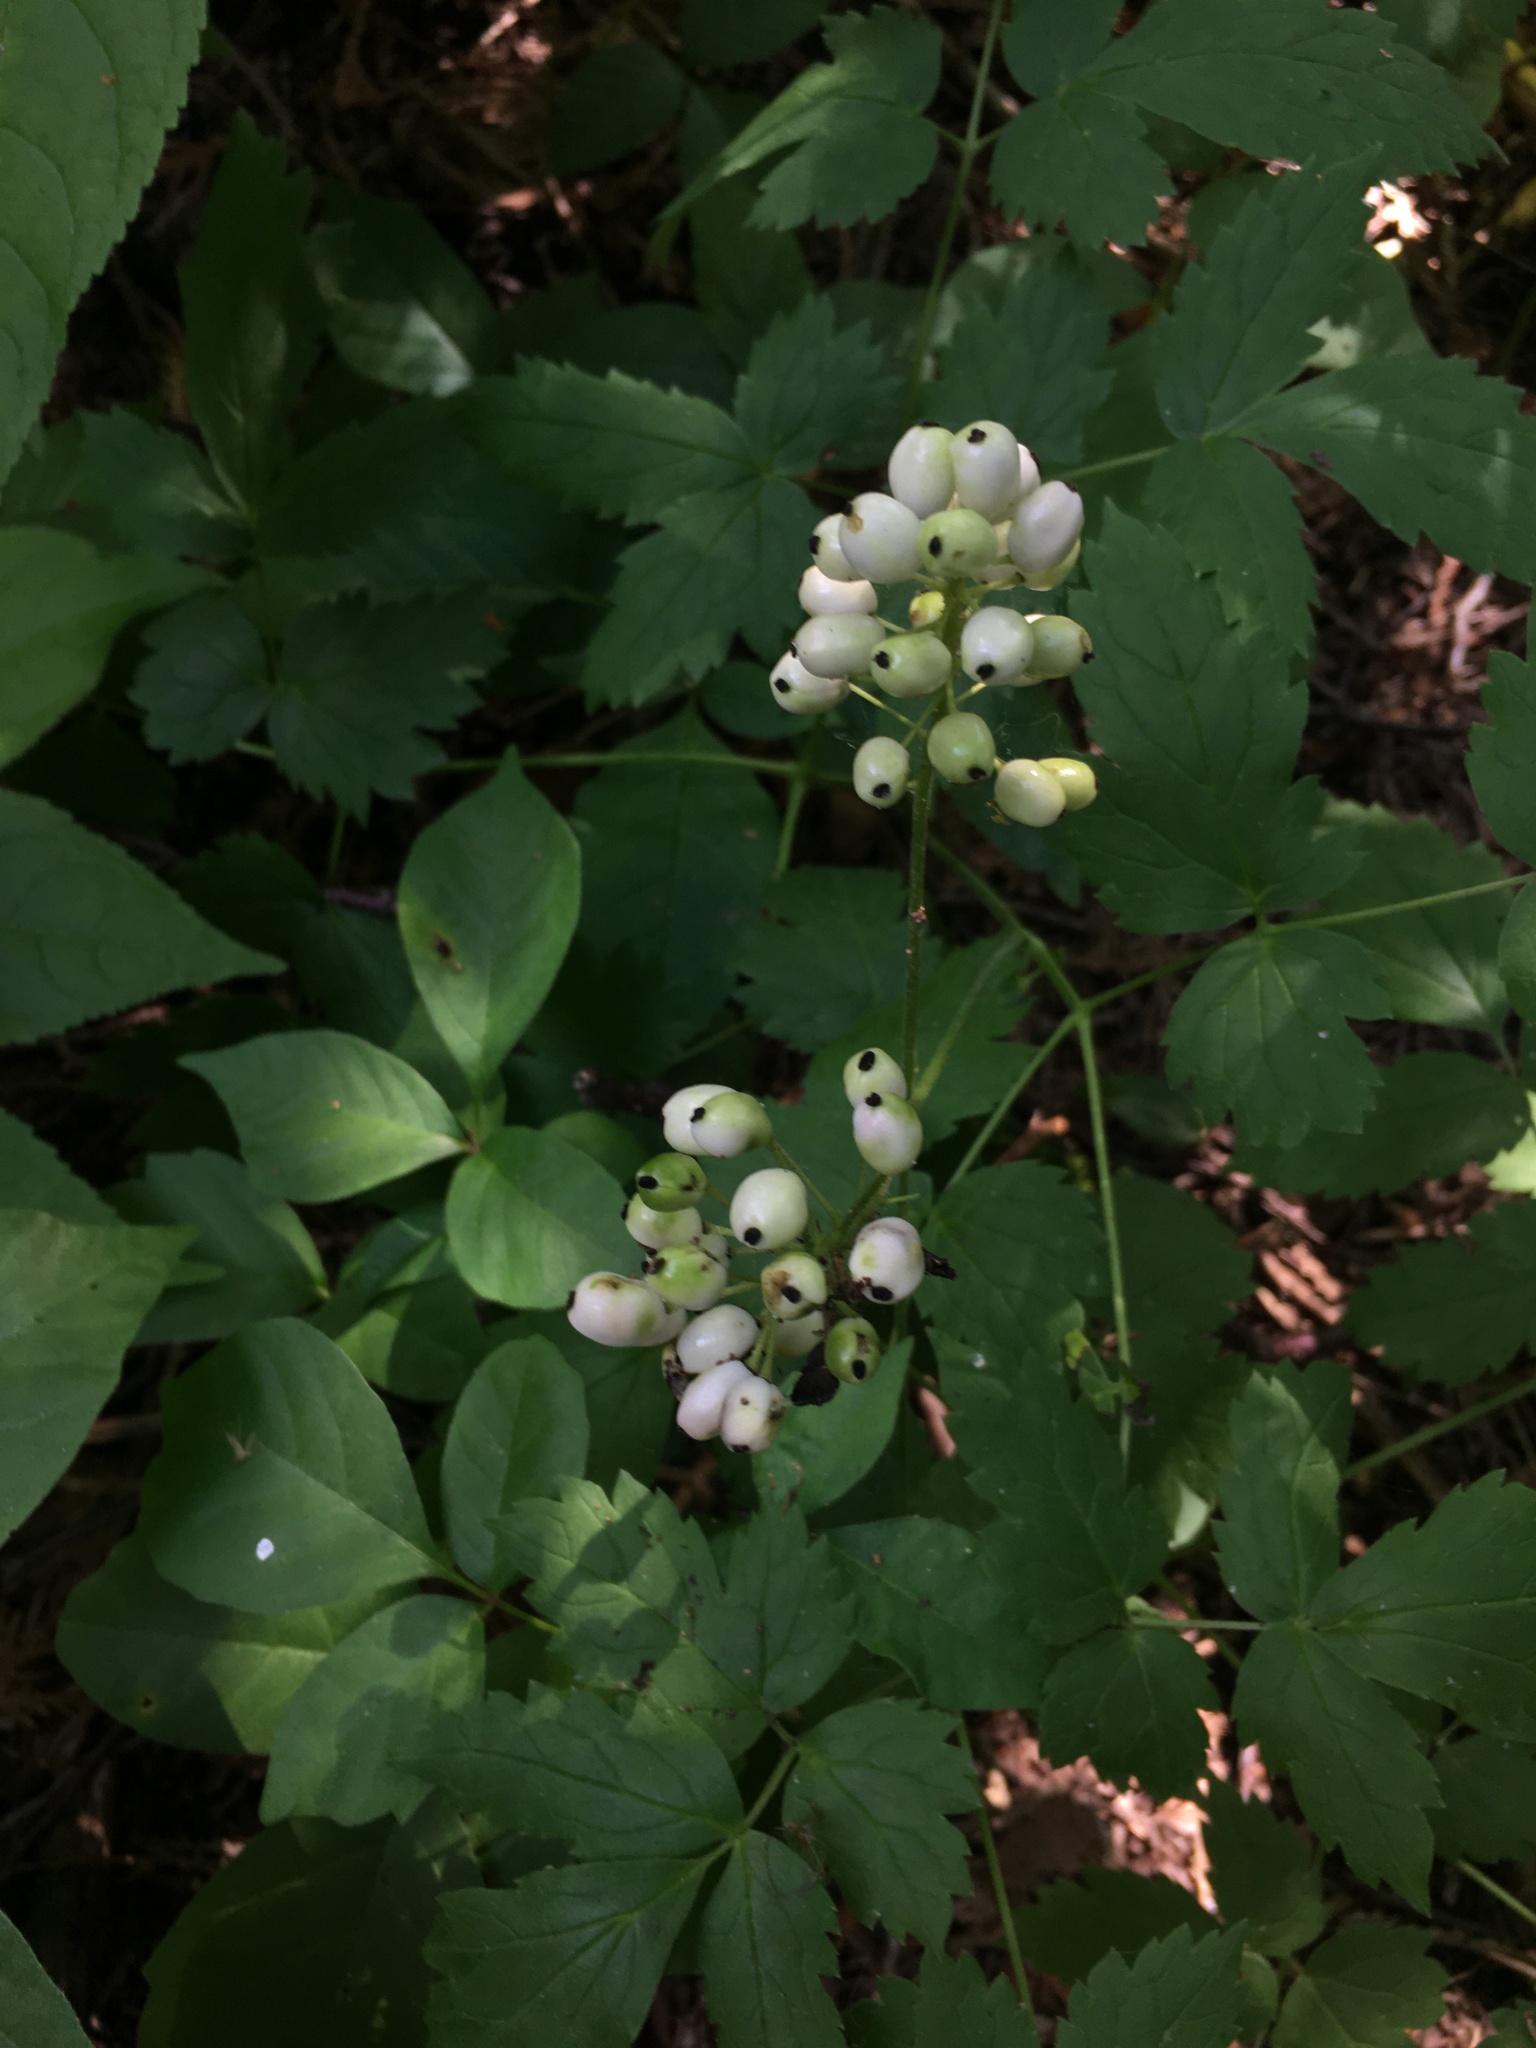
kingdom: Plantae
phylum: Tracheophyta
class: Magnoliopsida
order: Ranunculales
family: Ranunculaceae
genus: Actaea
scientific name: Actaea rubra
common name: Red baneberry
